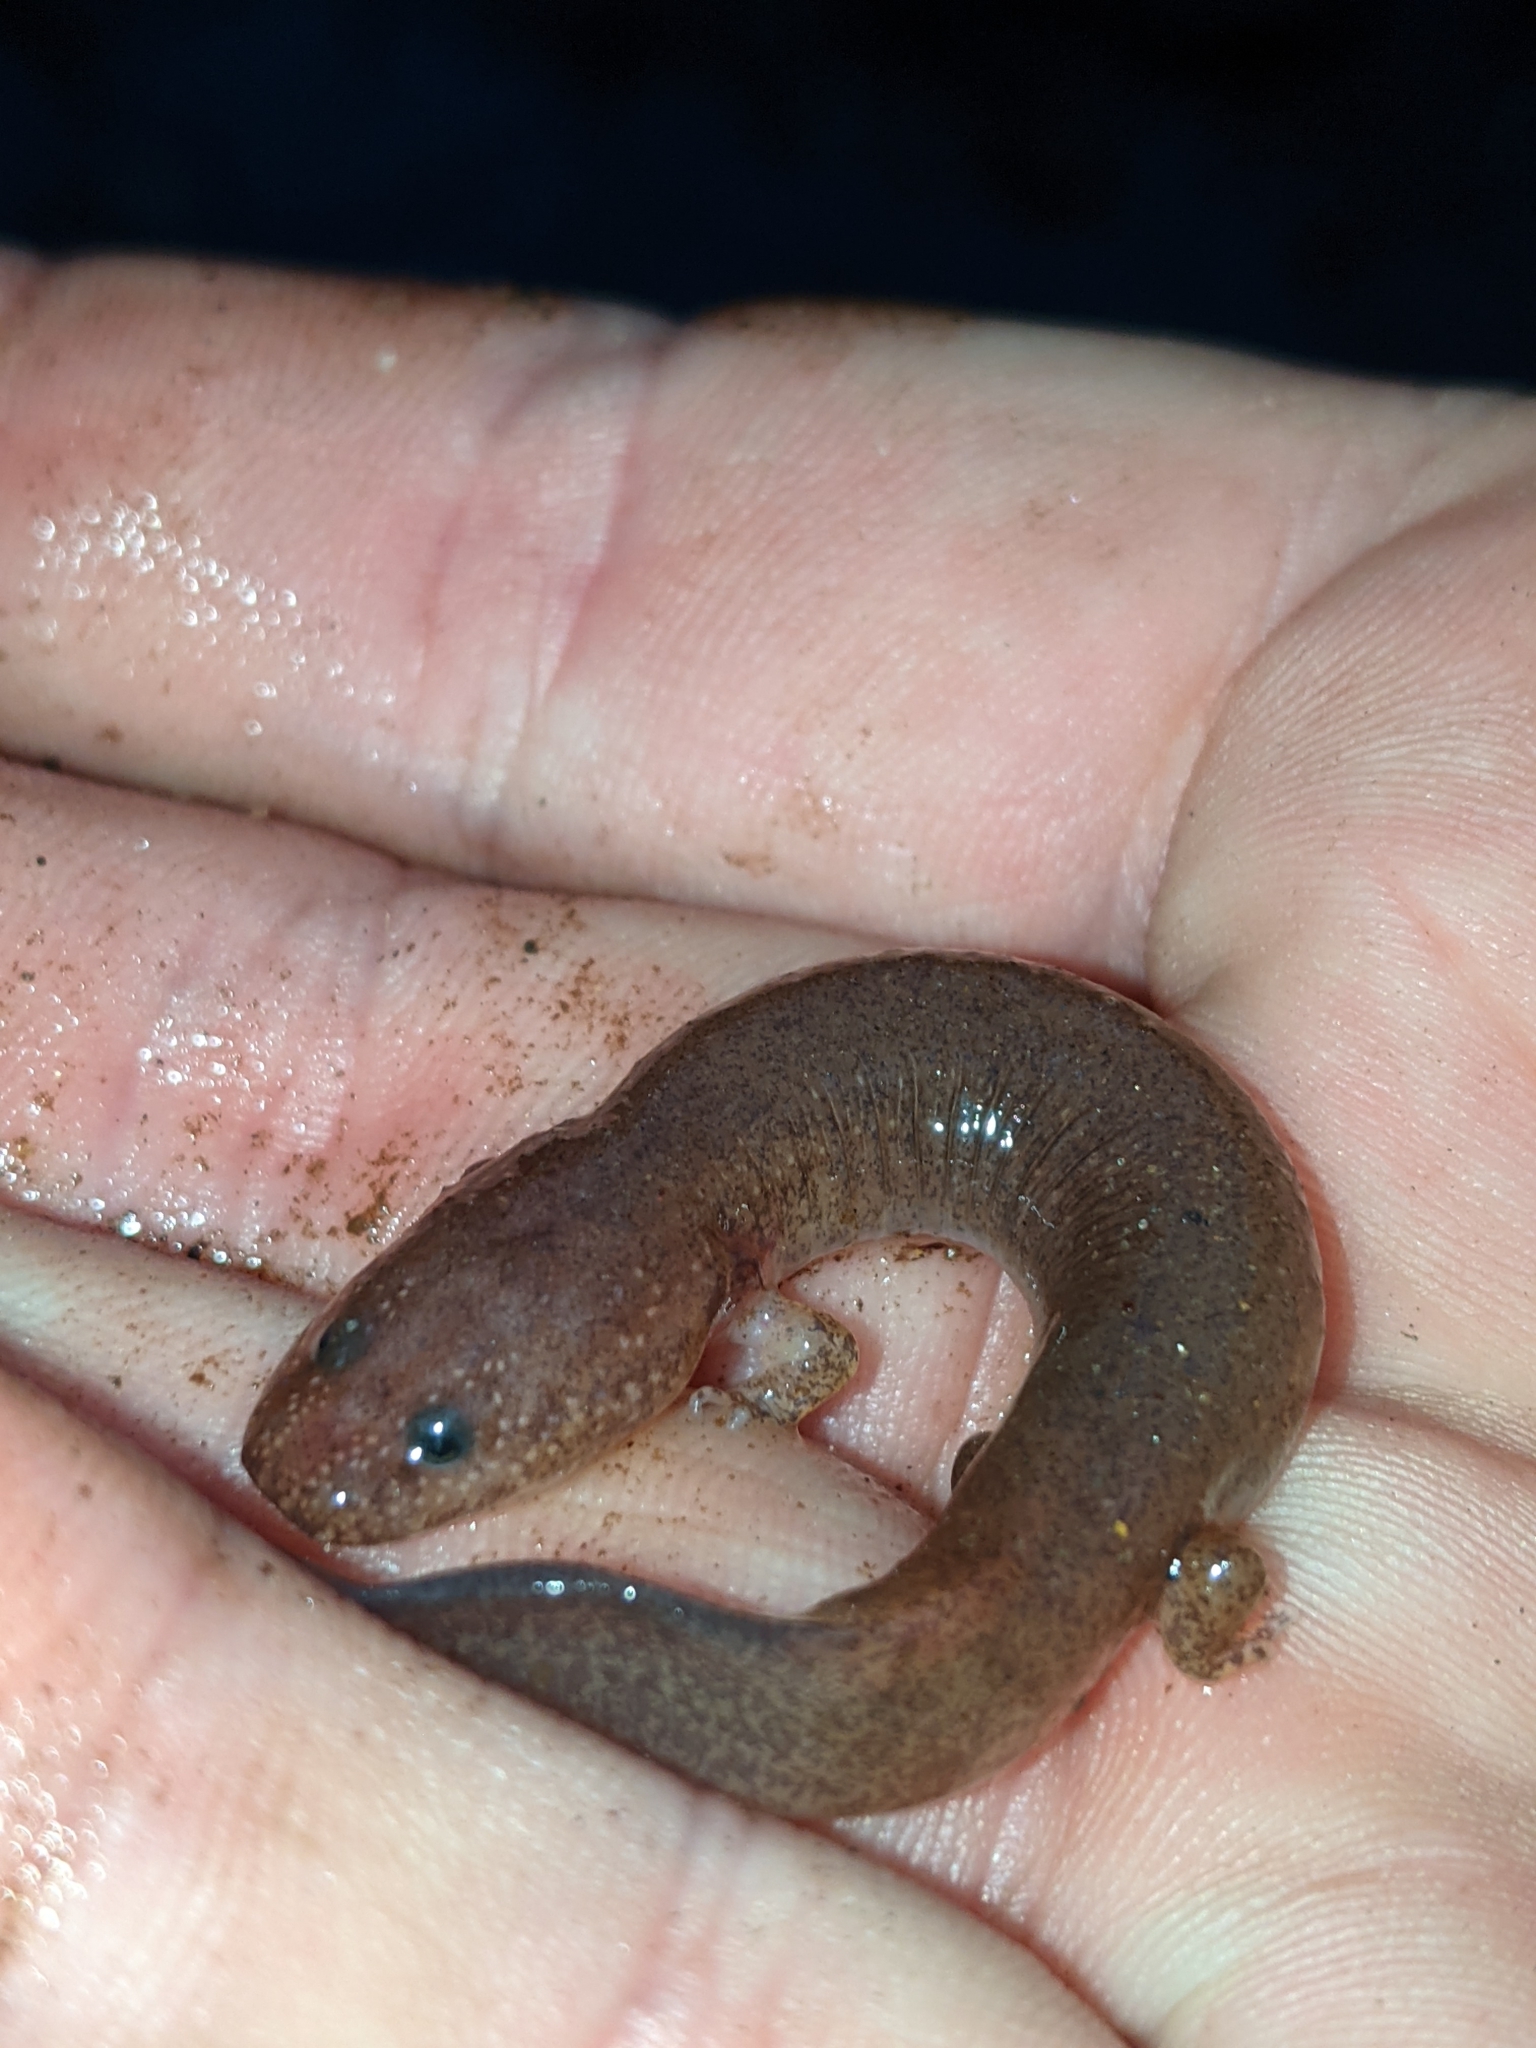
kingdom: Animalia
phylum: Chordata
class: Amphibia
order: Caudata
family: Plethodontidae
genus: Gyrinophilus
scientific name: Gyrinophilus porphyriticus
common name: Spring salamander
